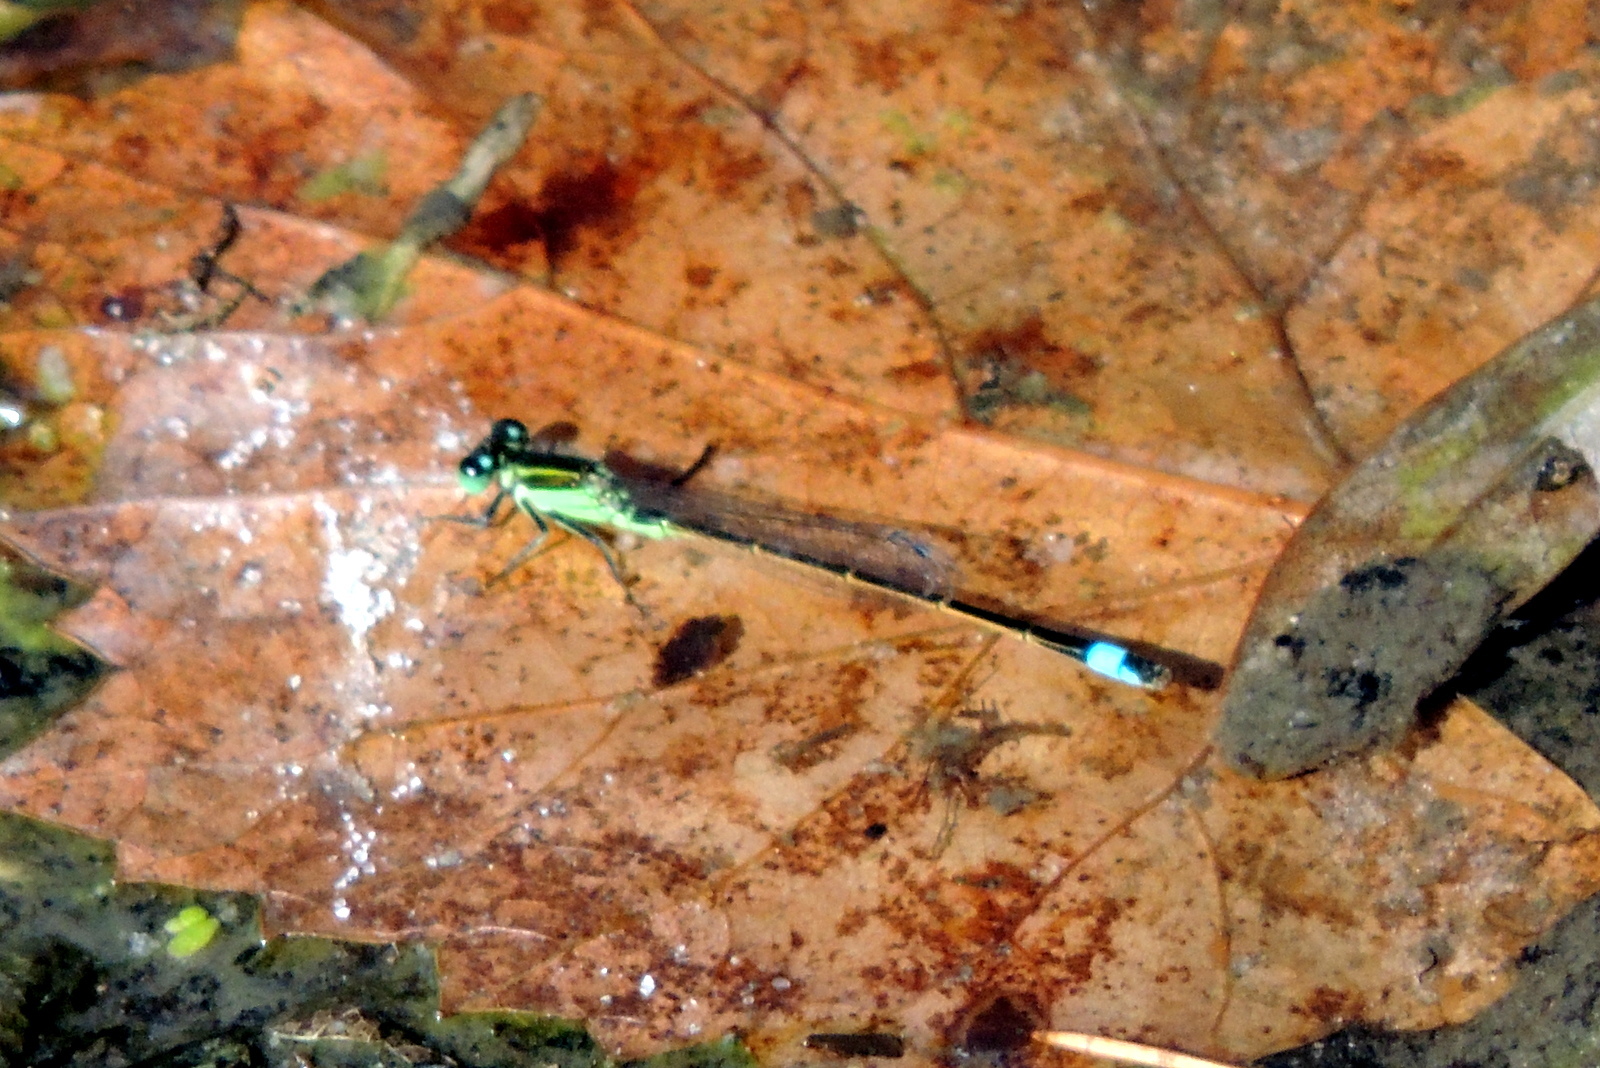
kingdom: Animalia
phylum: Arthropoda
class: Insecta
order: Odonata
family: Coenagrionidae
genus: Ischnura
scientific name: Ischnura ramburii
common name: Rambur's forktail
